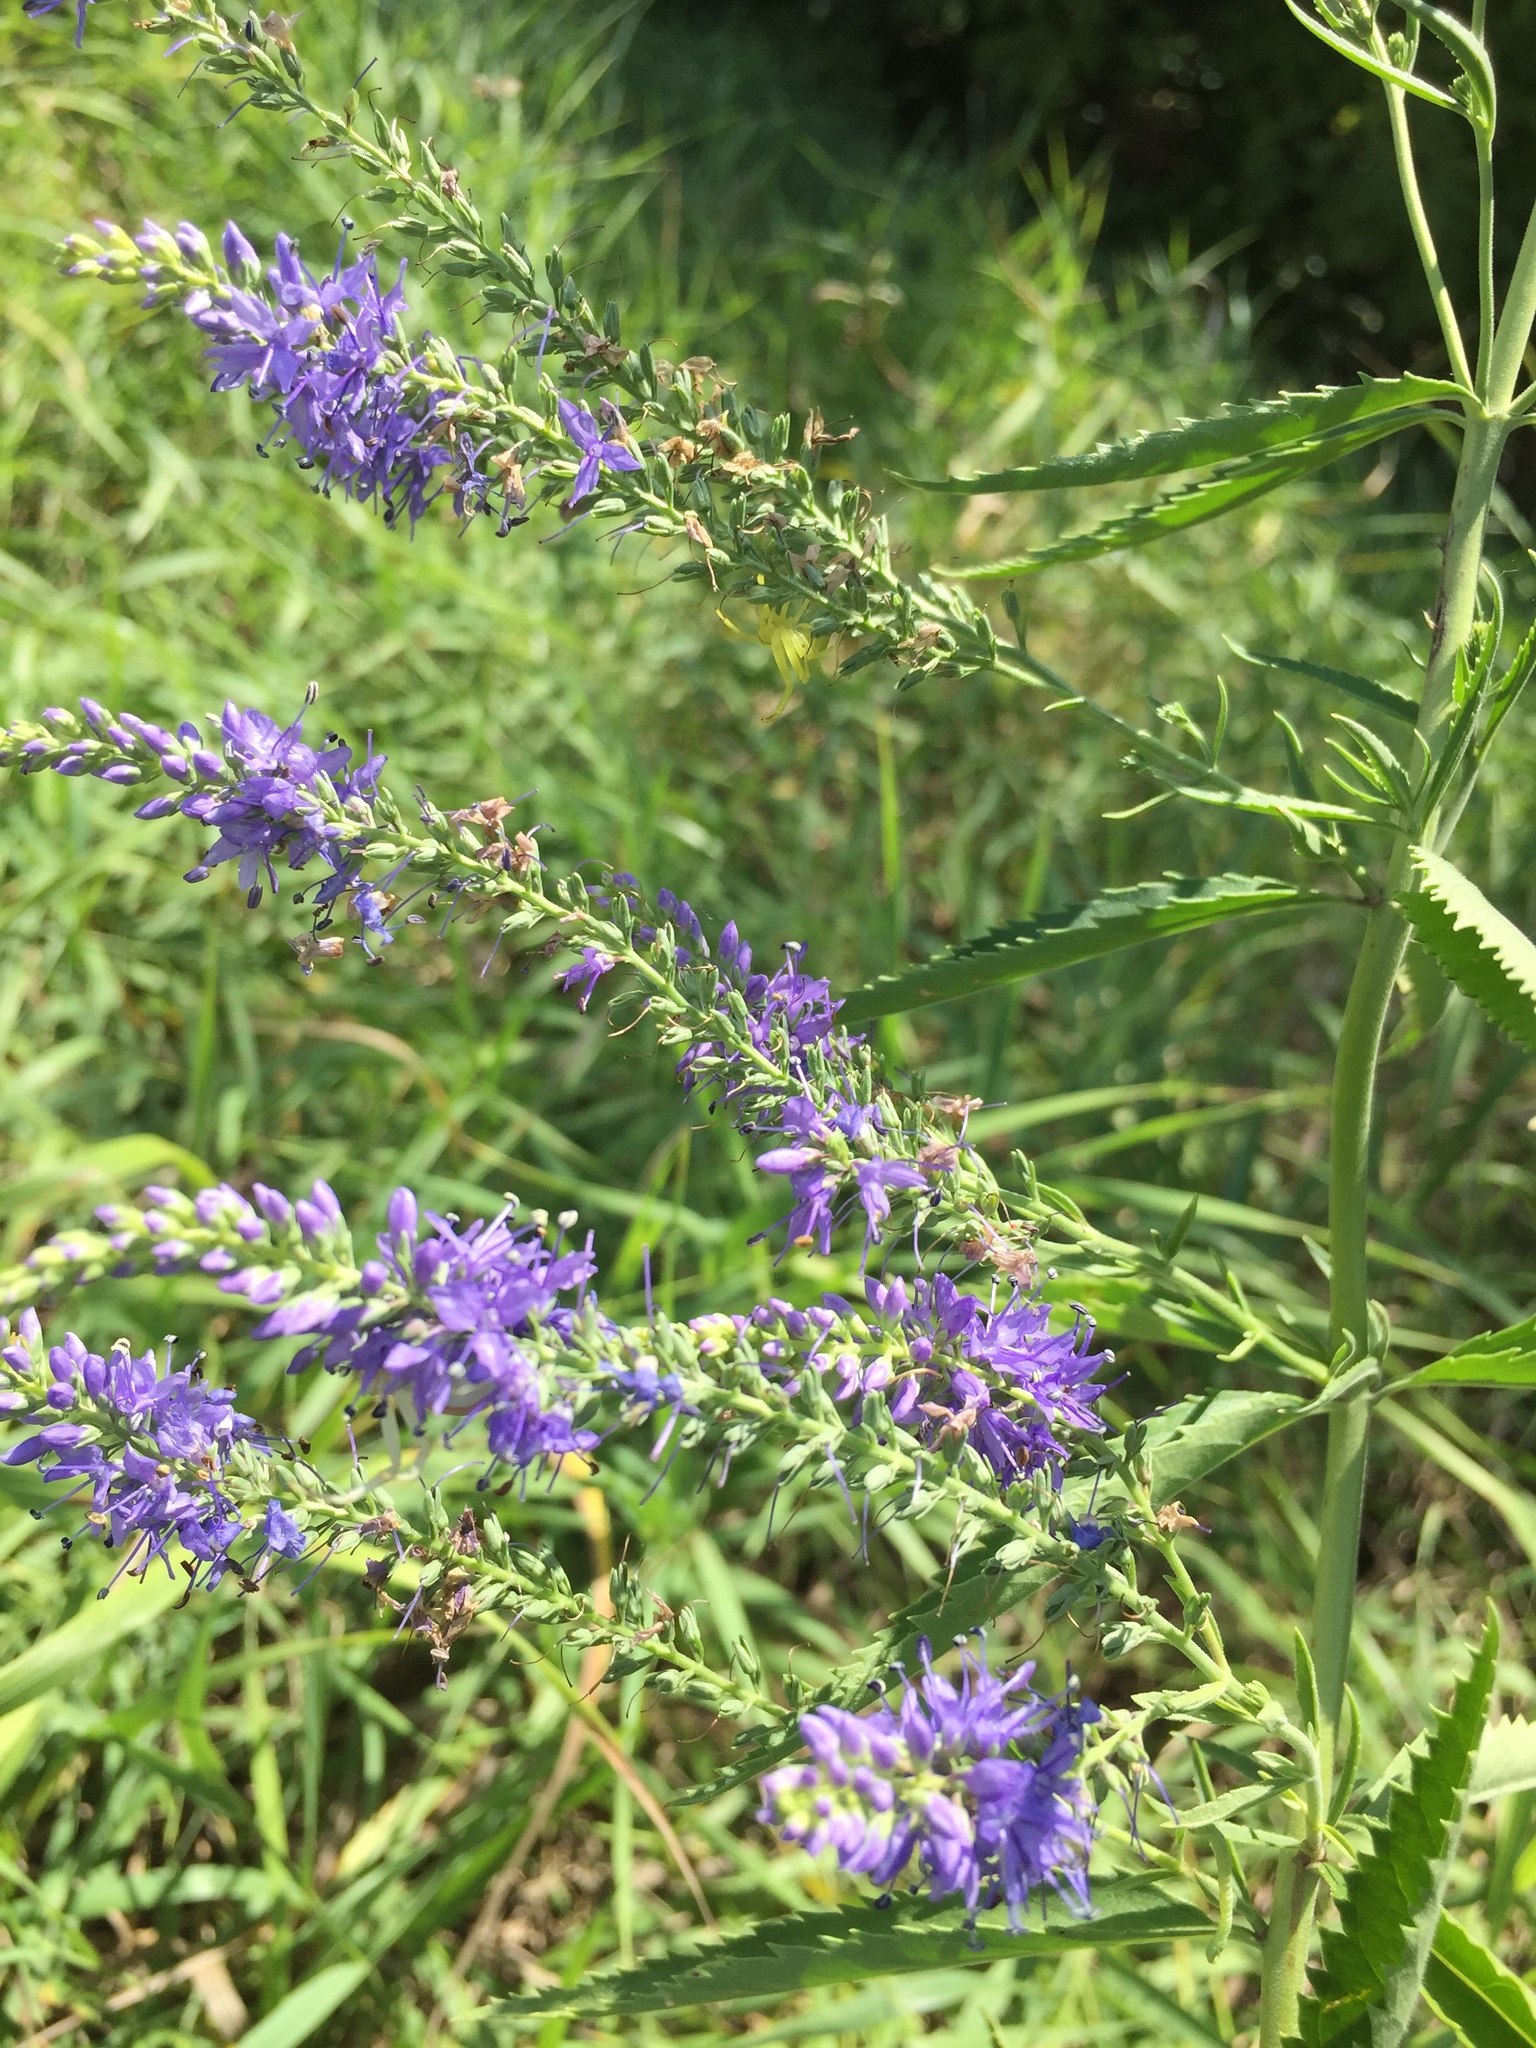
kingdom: Plantae
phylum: Tracheophyta
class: Magnoliopsida
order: Lamiales
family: Plantaginaceae
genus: Veronica
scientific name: Veronica longifolia
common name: Garden speedwell
